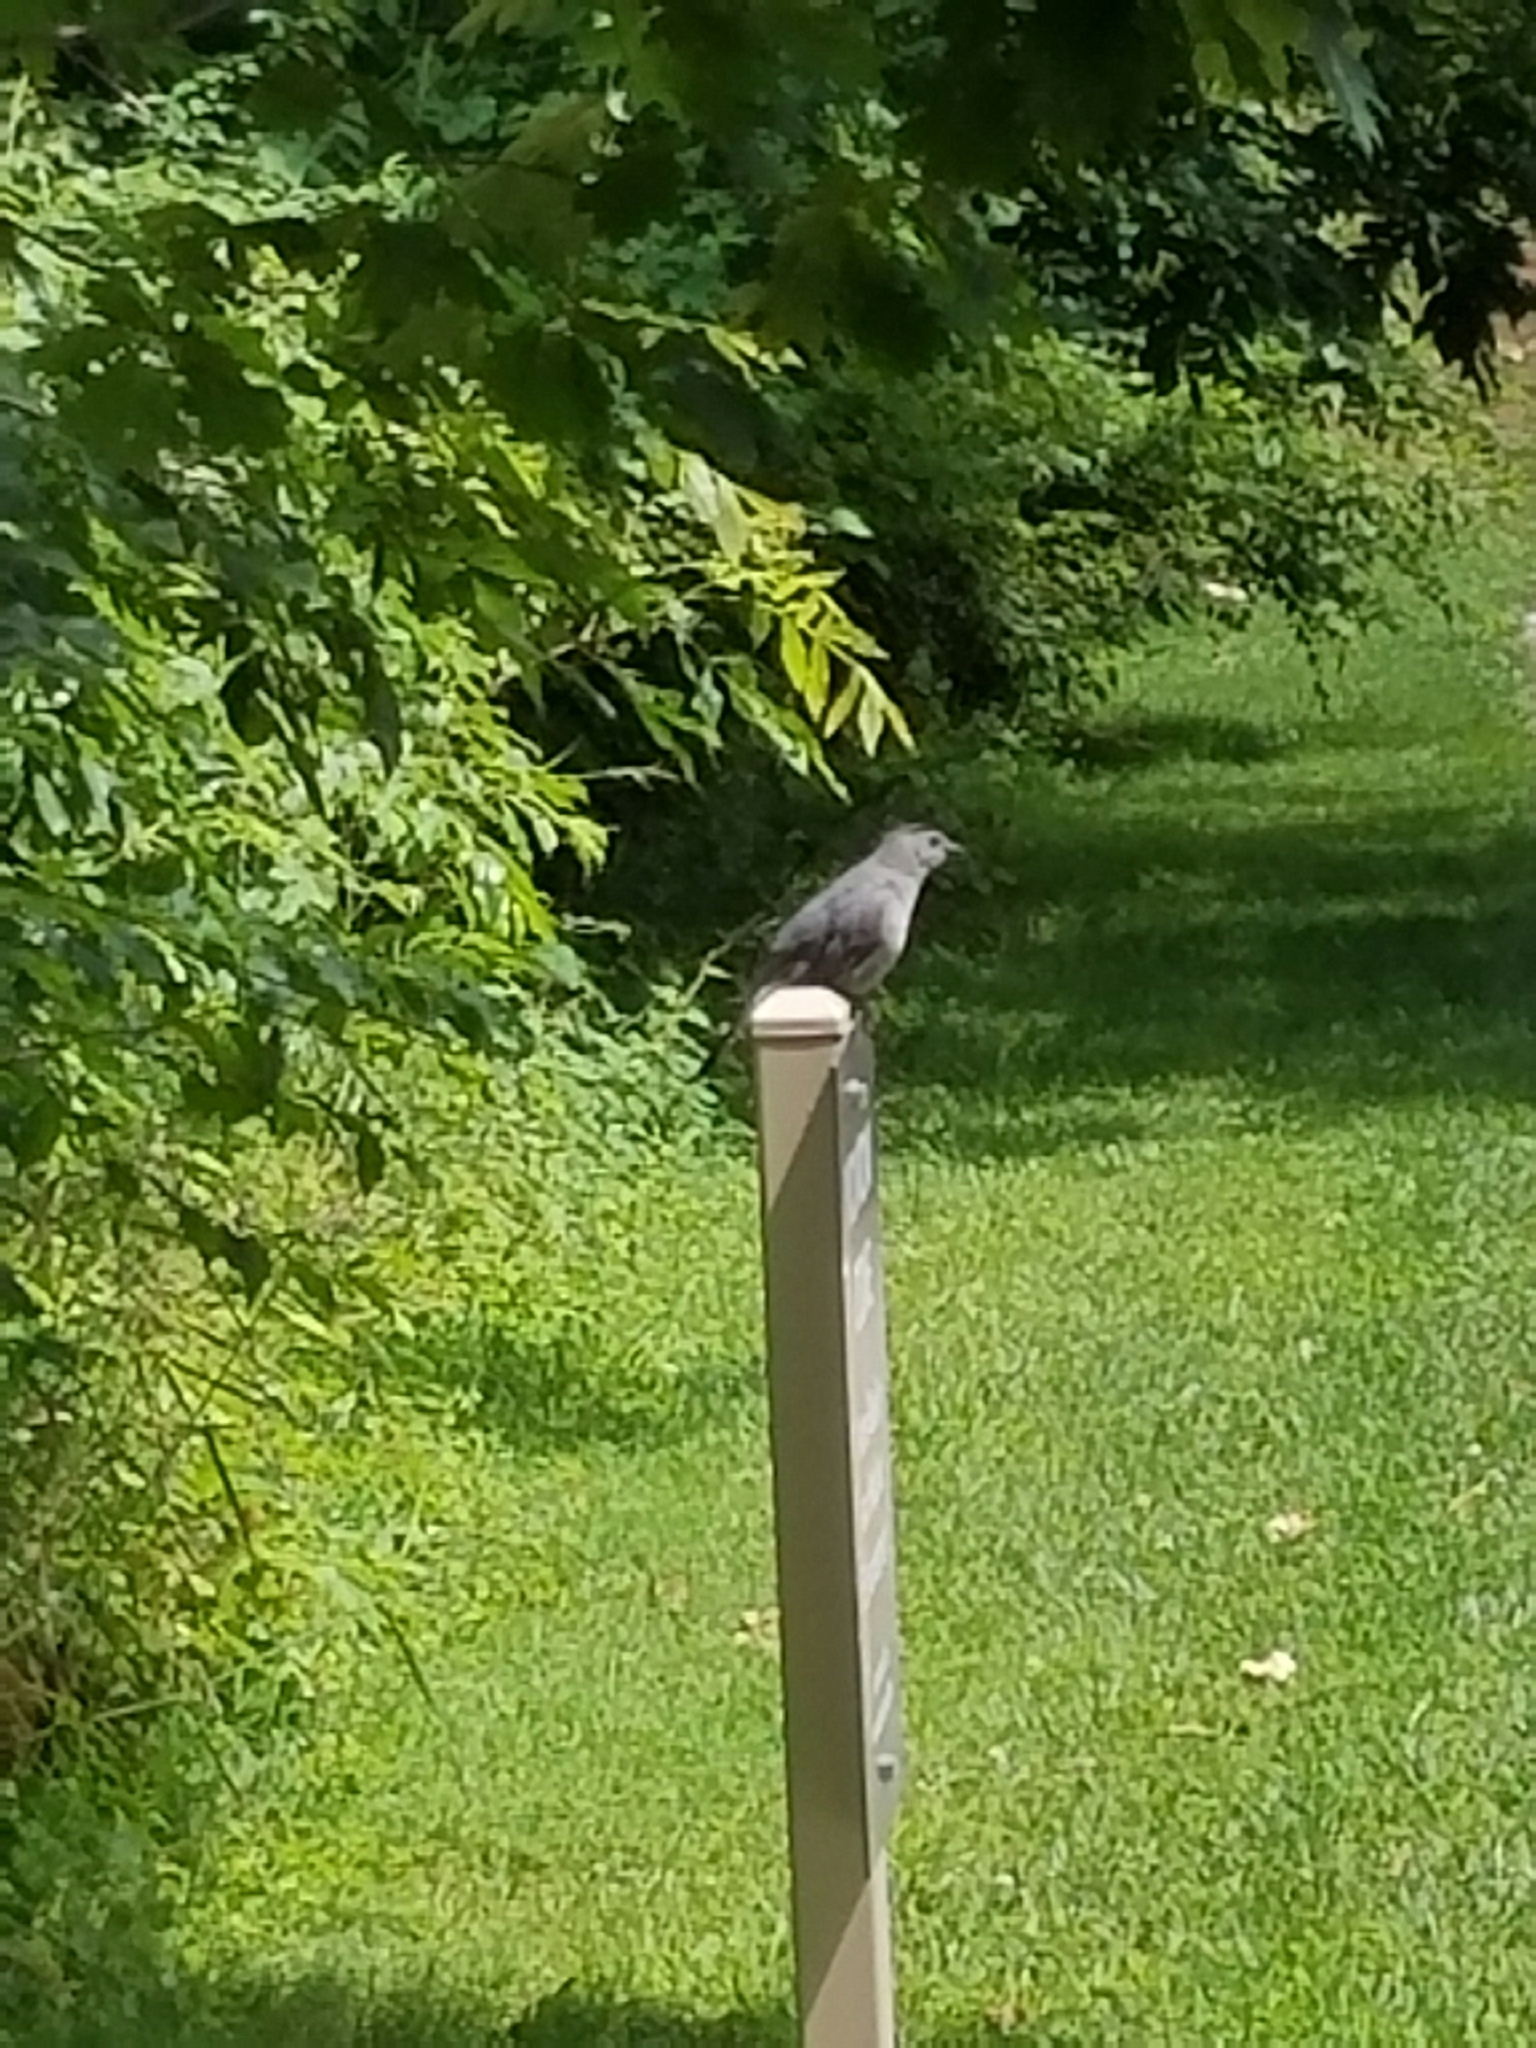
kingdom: Animalia
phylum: Chordata
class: Aves
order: Passeriformes
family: Mimidae
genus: Dumetella
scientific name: Dumetella carolinensis
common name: Gray catbird
